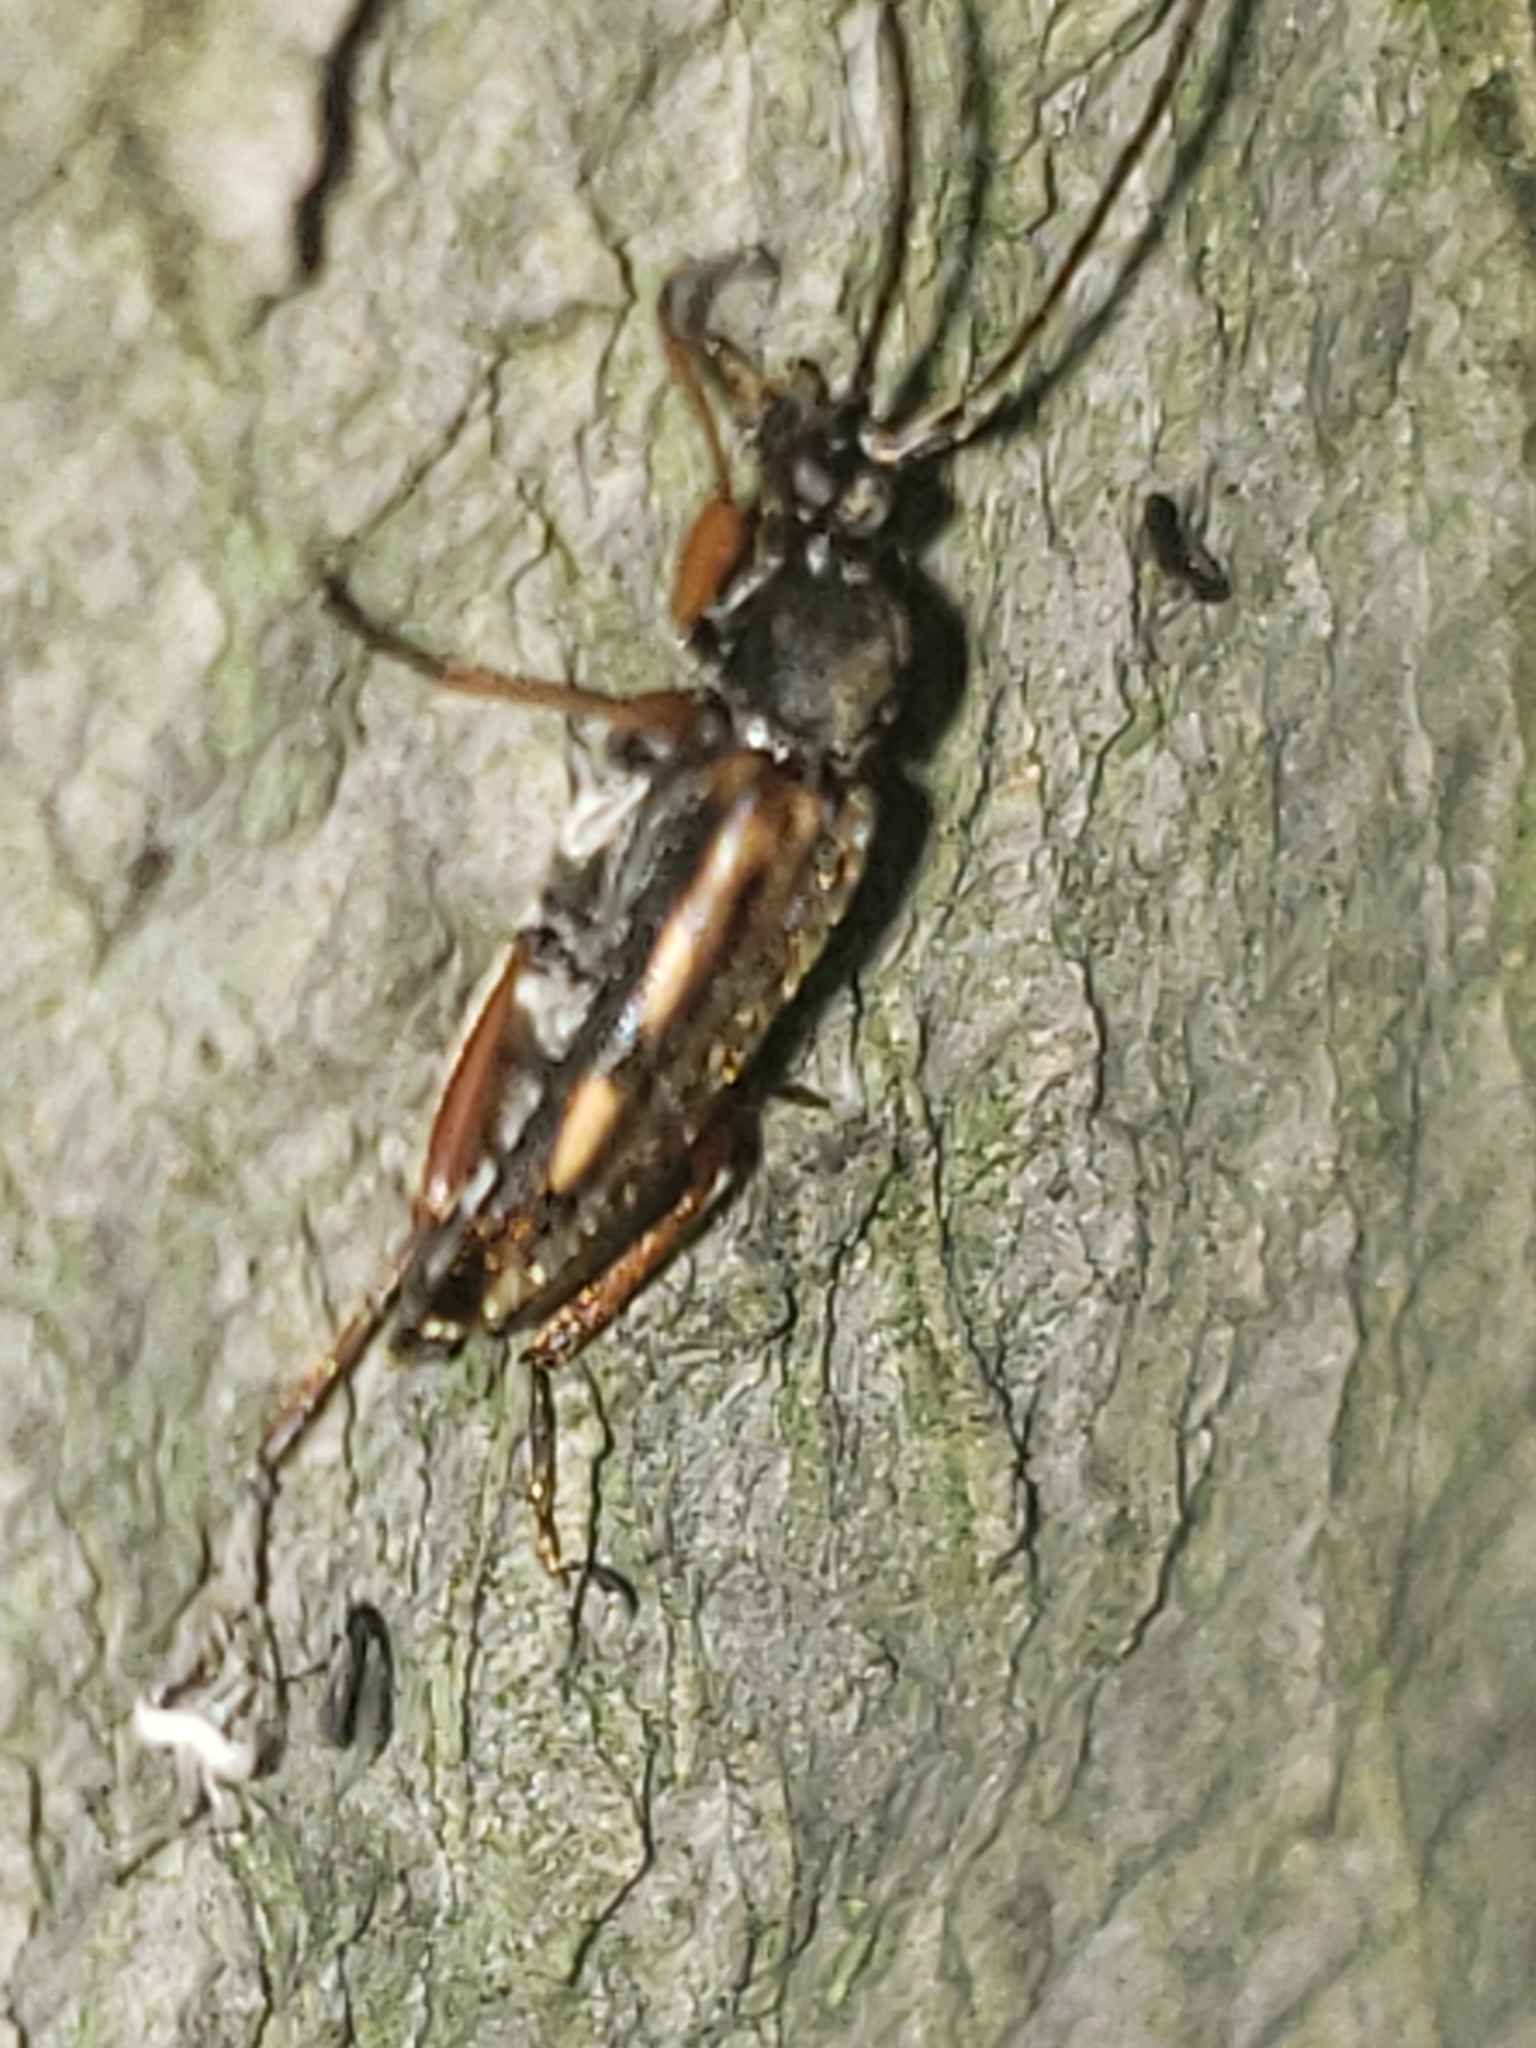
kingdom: Animalia
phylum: Arthropoda
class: Insecta
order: Coleoptera
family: Cerambycidae
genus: Analeptura
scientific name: Analeptura lineola
